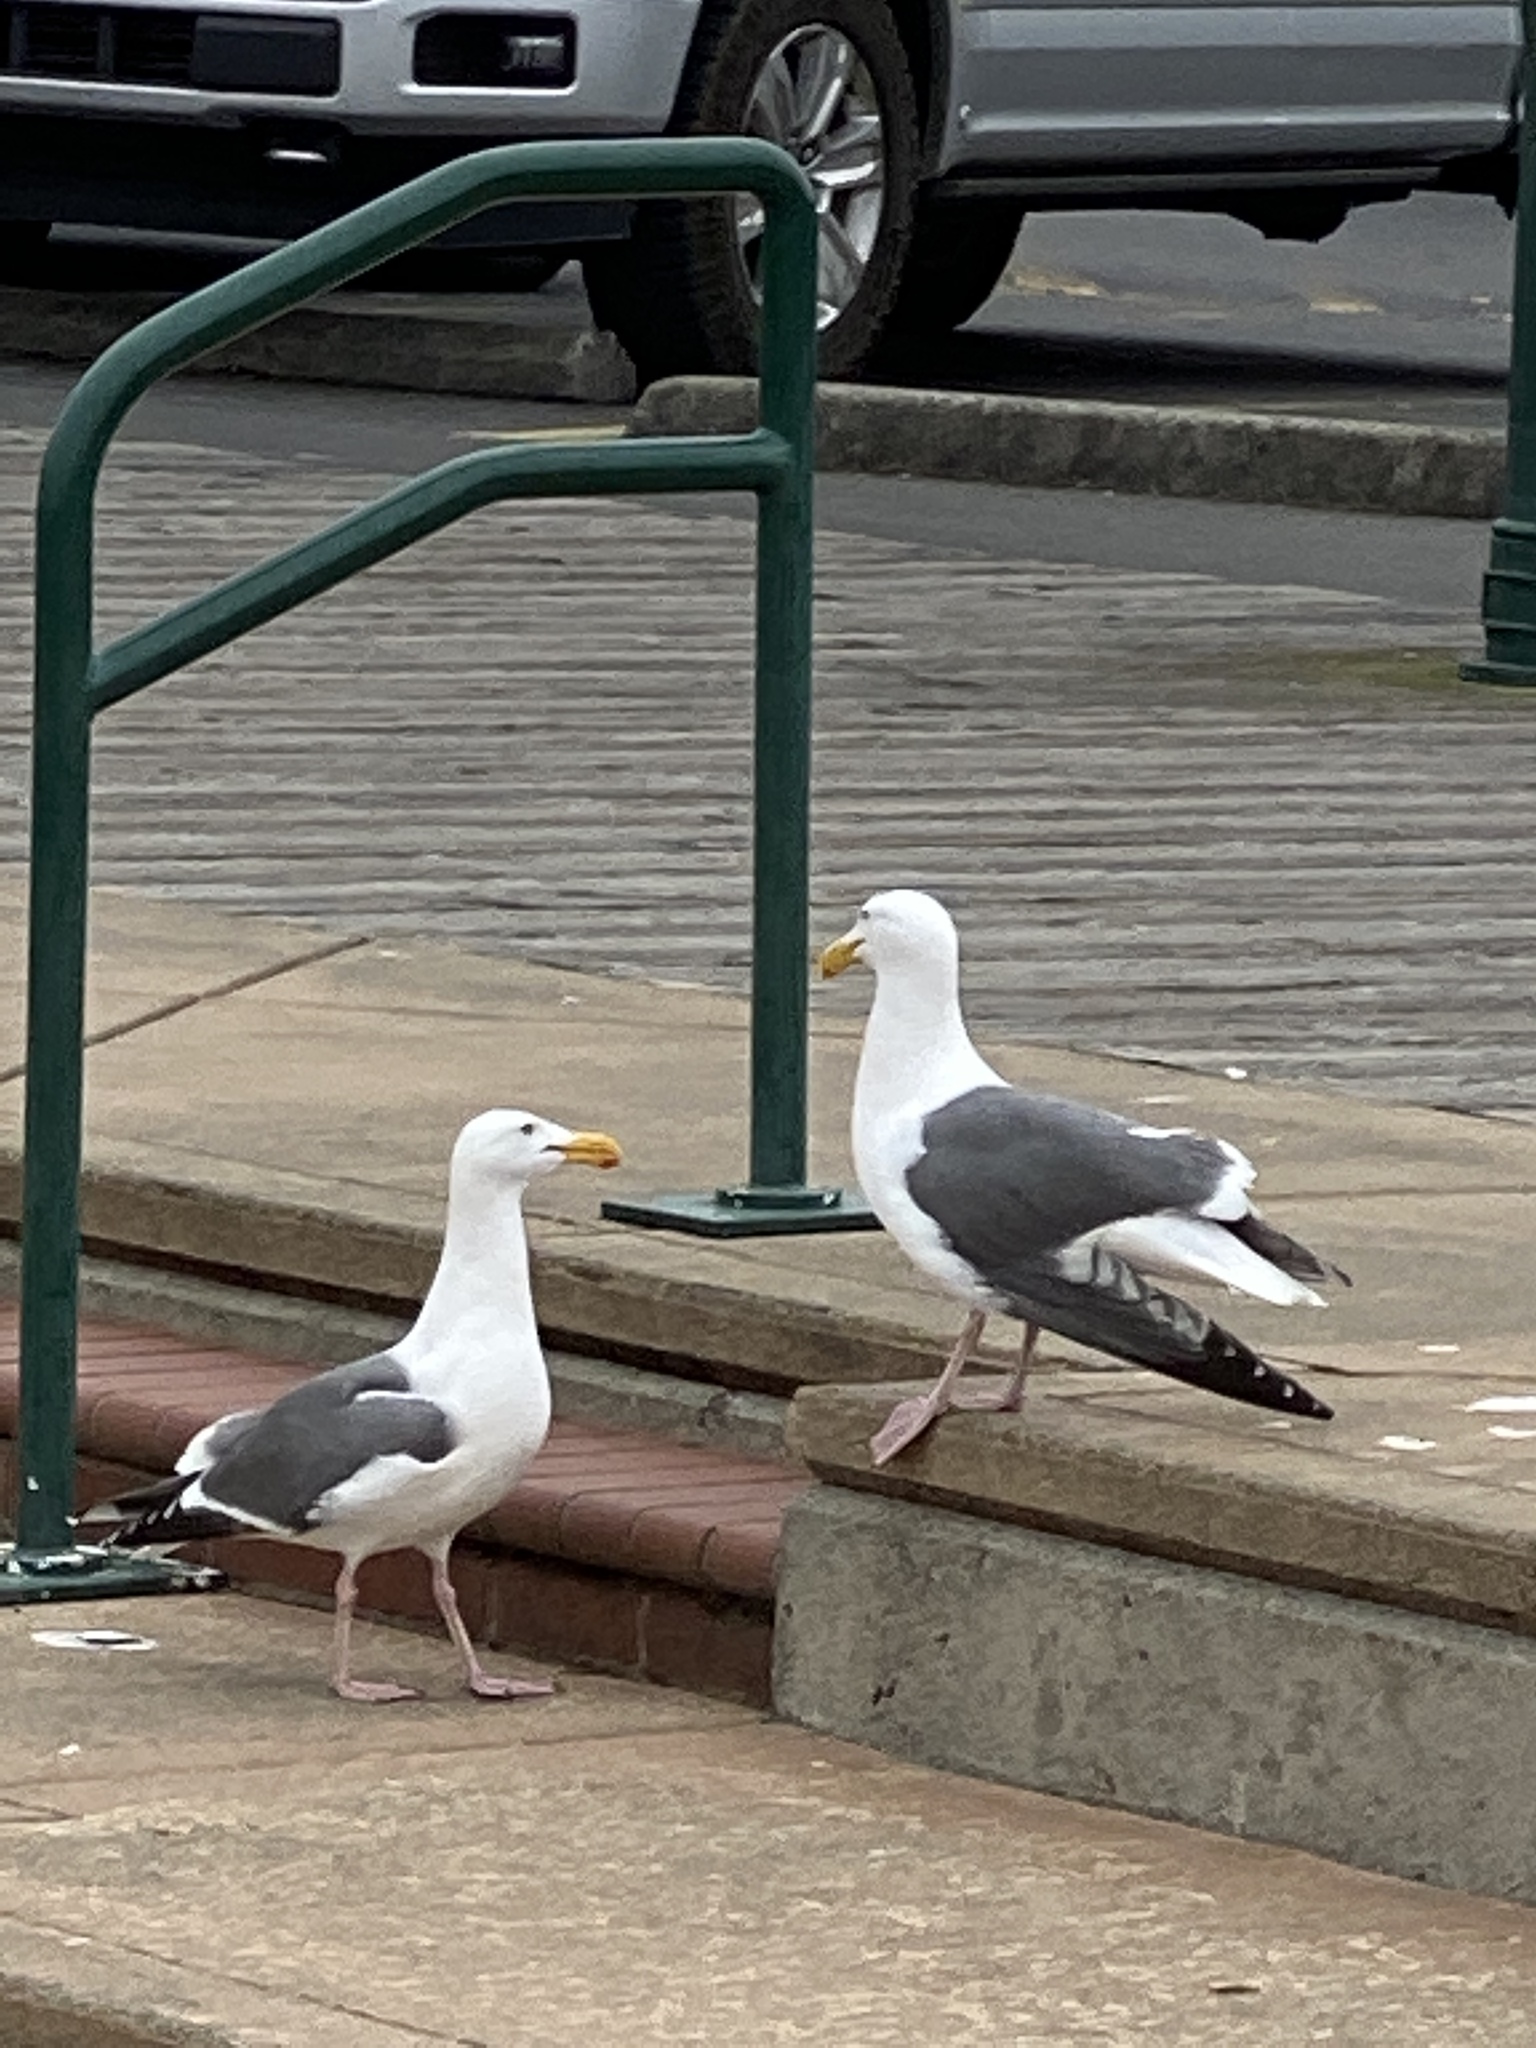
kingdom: Animalia
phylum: Chordata
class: Aves
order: Charadriiformes
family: Laridae
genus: Larus
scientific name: Larus occidentalis
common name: Western gull
